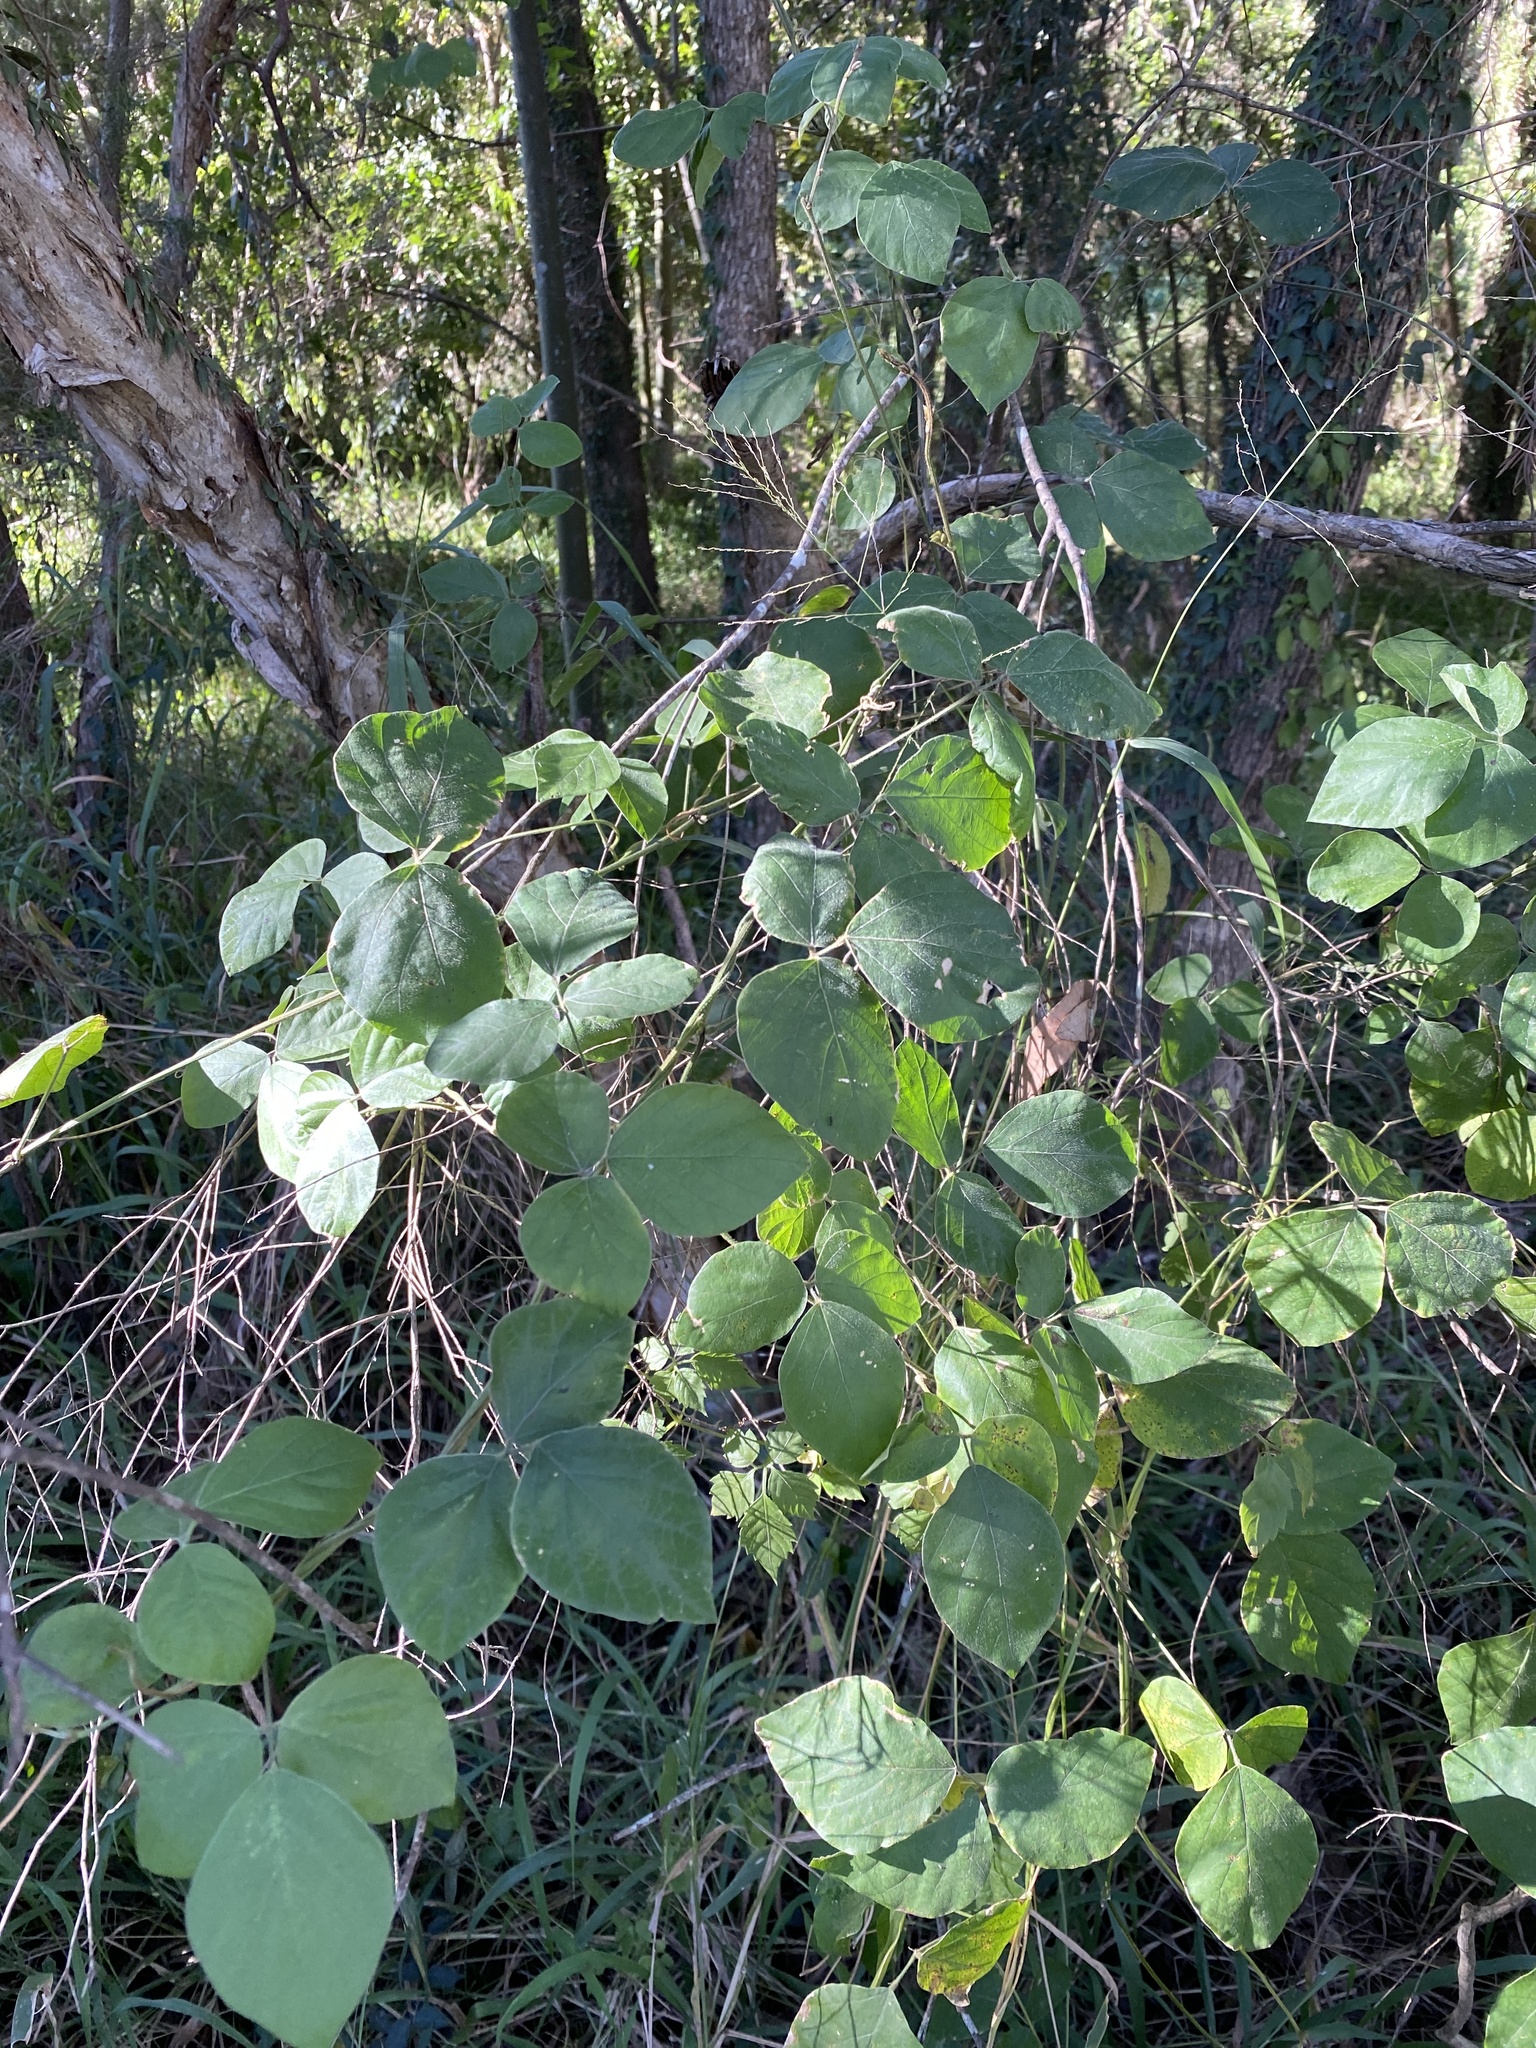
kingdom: Plantae
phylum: Tracheophyta
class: Magnoliopsida
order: Fabales
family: Fabaceae
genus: Neonotonia
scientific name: Neonotonia wightii
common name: Perennial soybean
